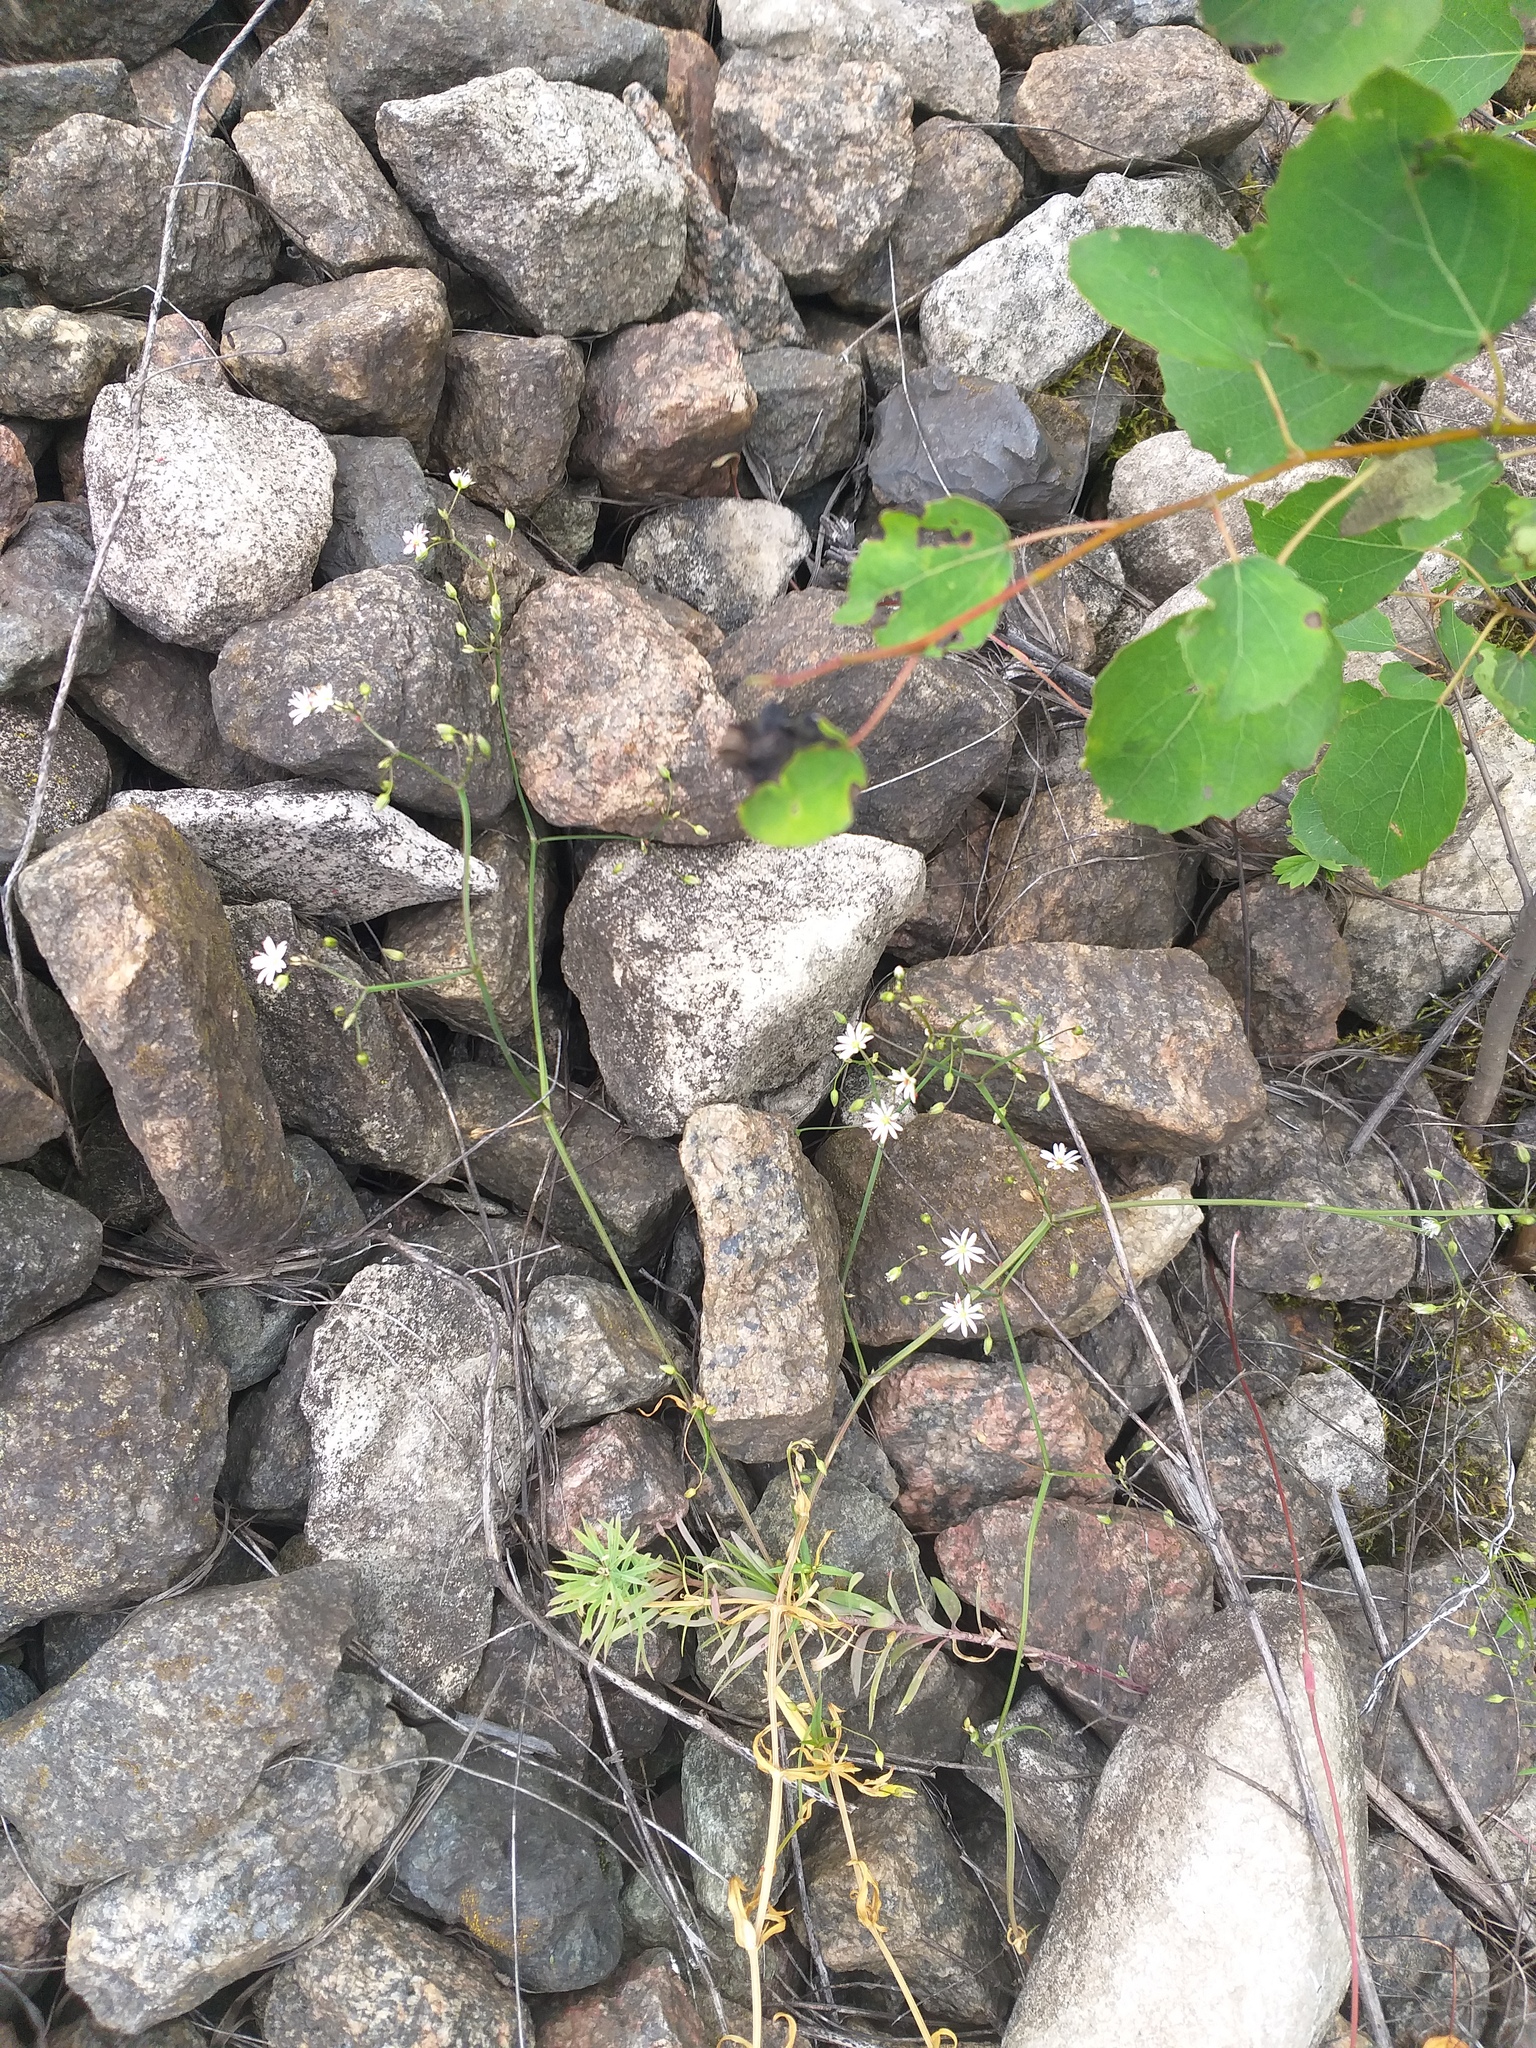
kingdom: Plantae
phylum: Tracheophyta
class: Magnoliopsida
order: Caryophyllales
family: Caryophyllaceae
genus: Stellaria
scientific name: Stellaria graminea
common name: Grass-like starwort
